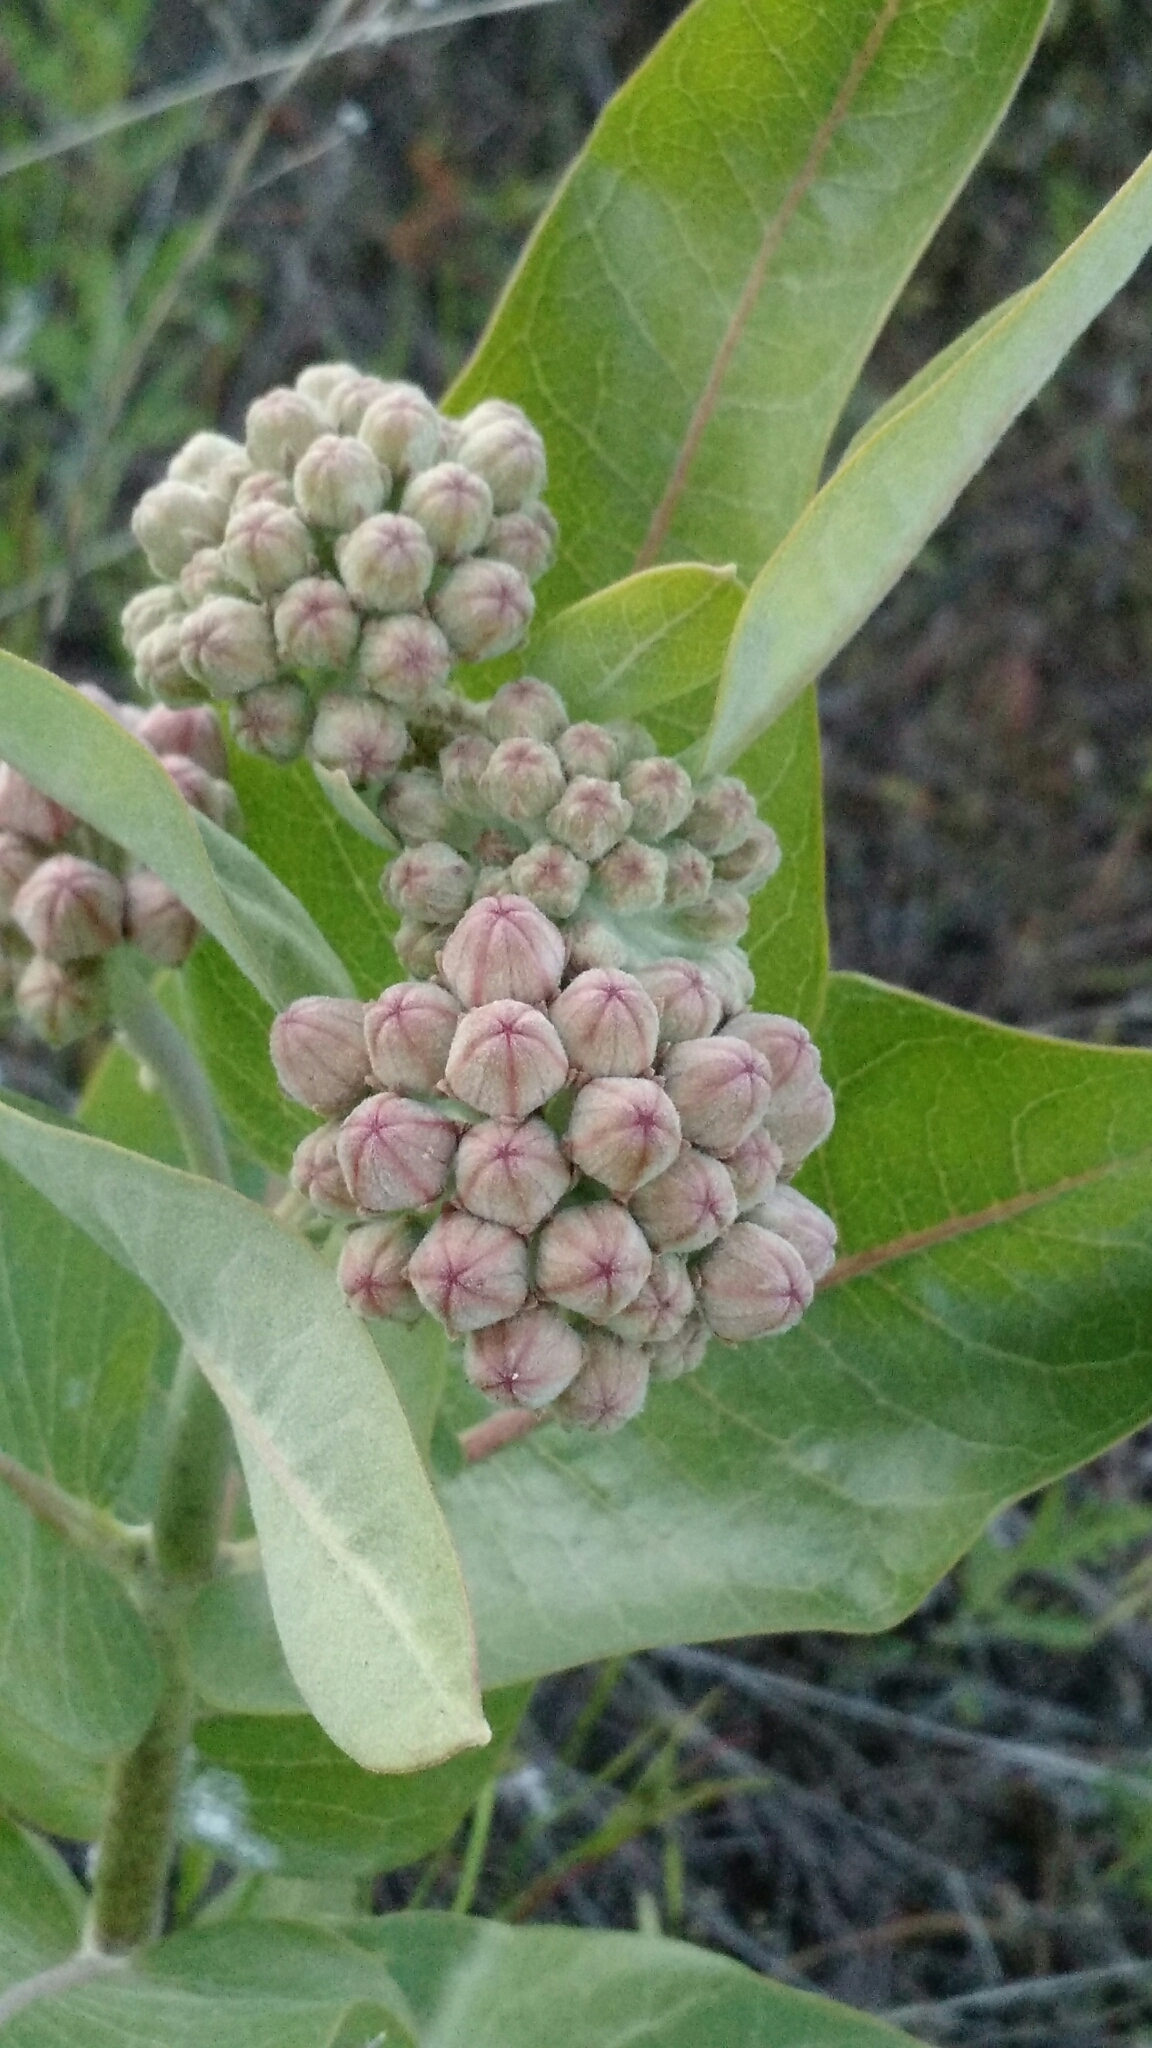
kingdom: Plantae
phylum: Tracheophyta
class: Magnoliopsida
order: Gentianales
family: Apocynaceae
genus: Asclepias
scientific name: Asclepias speciosa
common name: Showy milkweed
